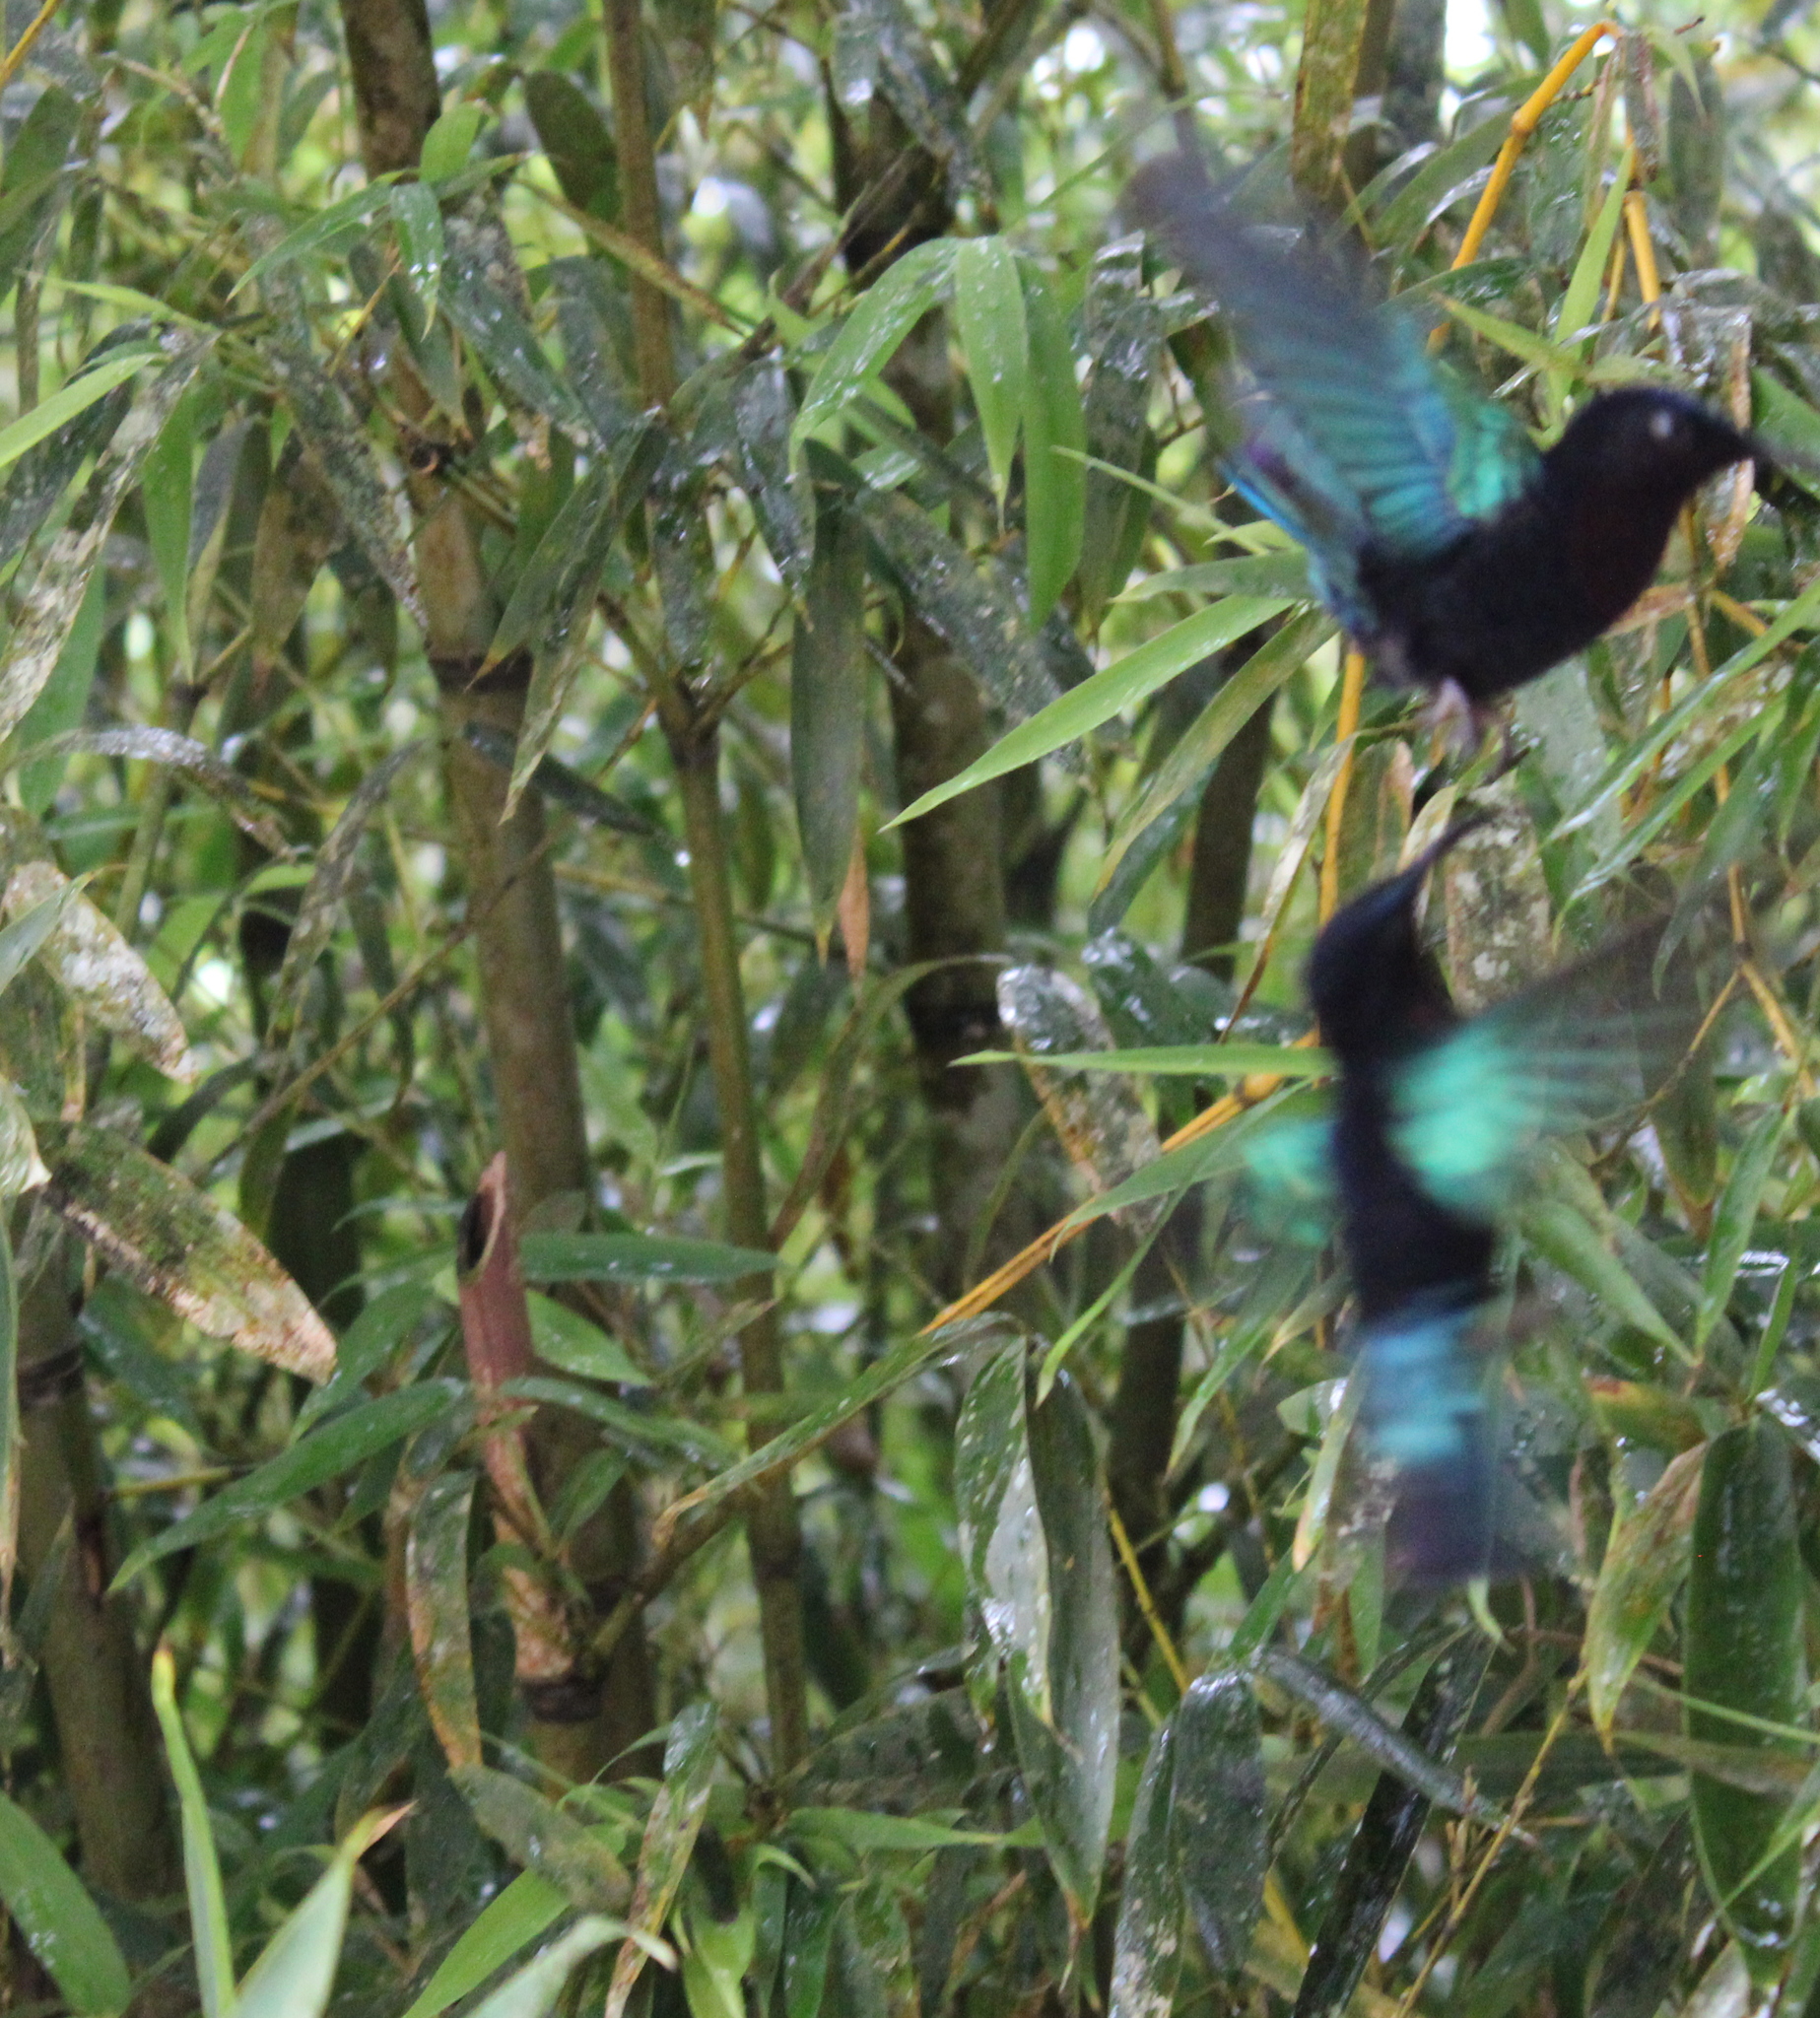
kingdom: Animalia
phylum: Chordata
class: Aves
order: Apodiformes
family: Trochilidae
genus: Eulampis
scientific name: Eulampis jugularis
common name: Purple-throated carib
